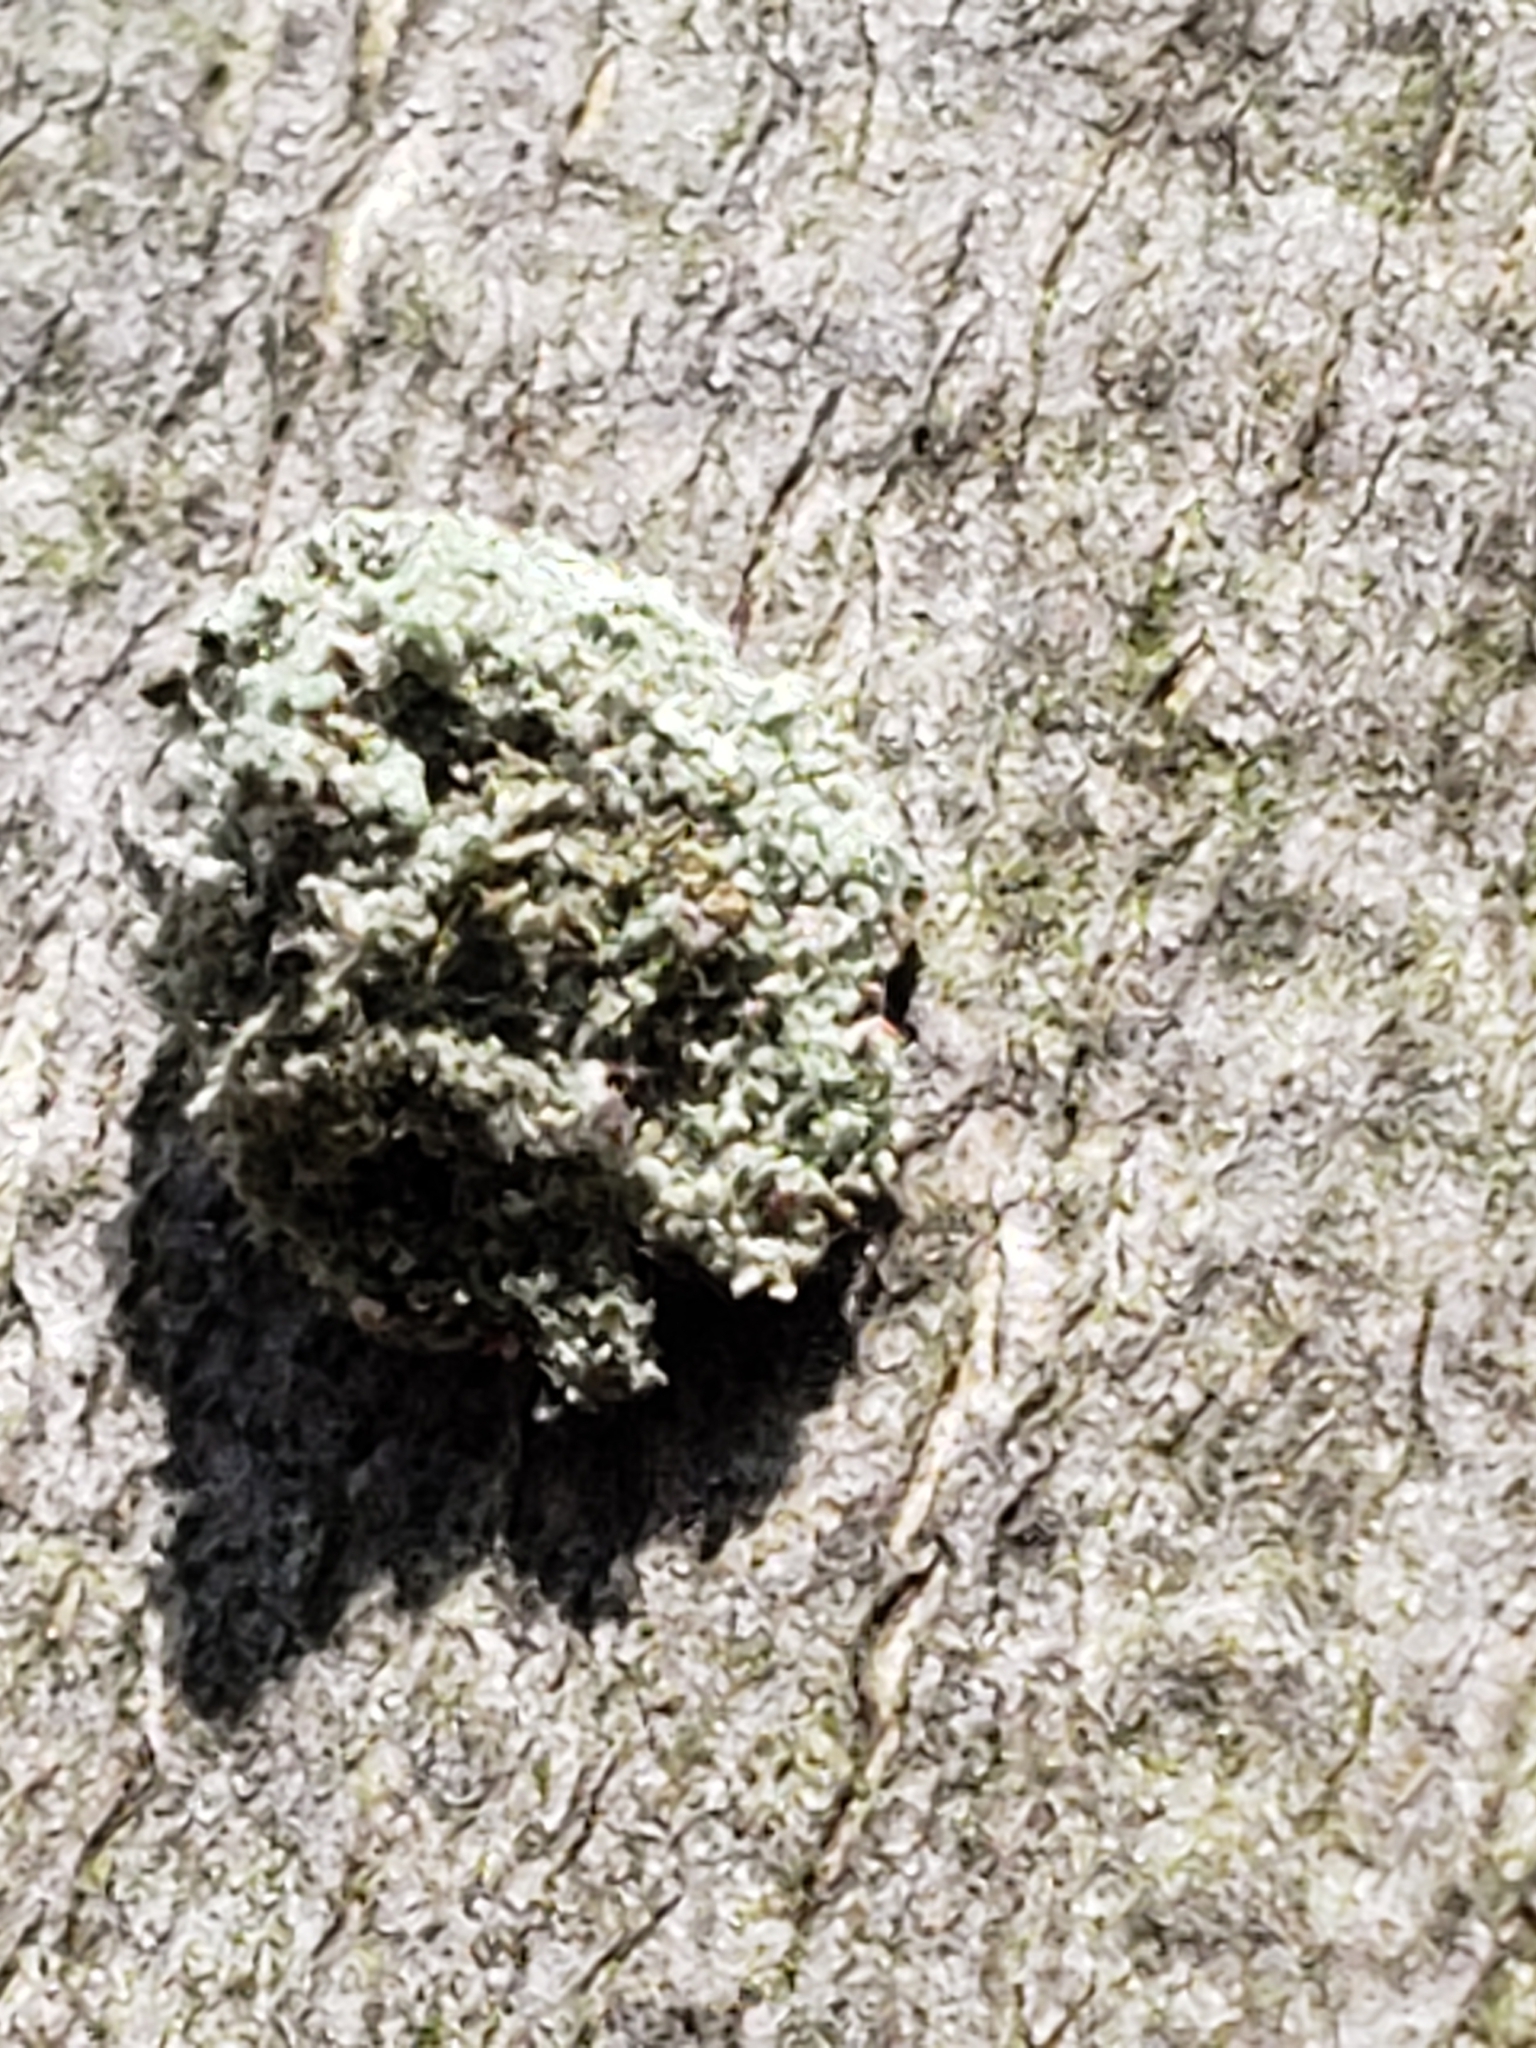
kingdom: Animalia
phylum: Arthropoda
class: Insecta
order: Neuroptera
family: Chrysopidae
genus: Leucochrysa
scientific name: Leucochrysa pavida
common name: Lichen-carrying green lacewing
